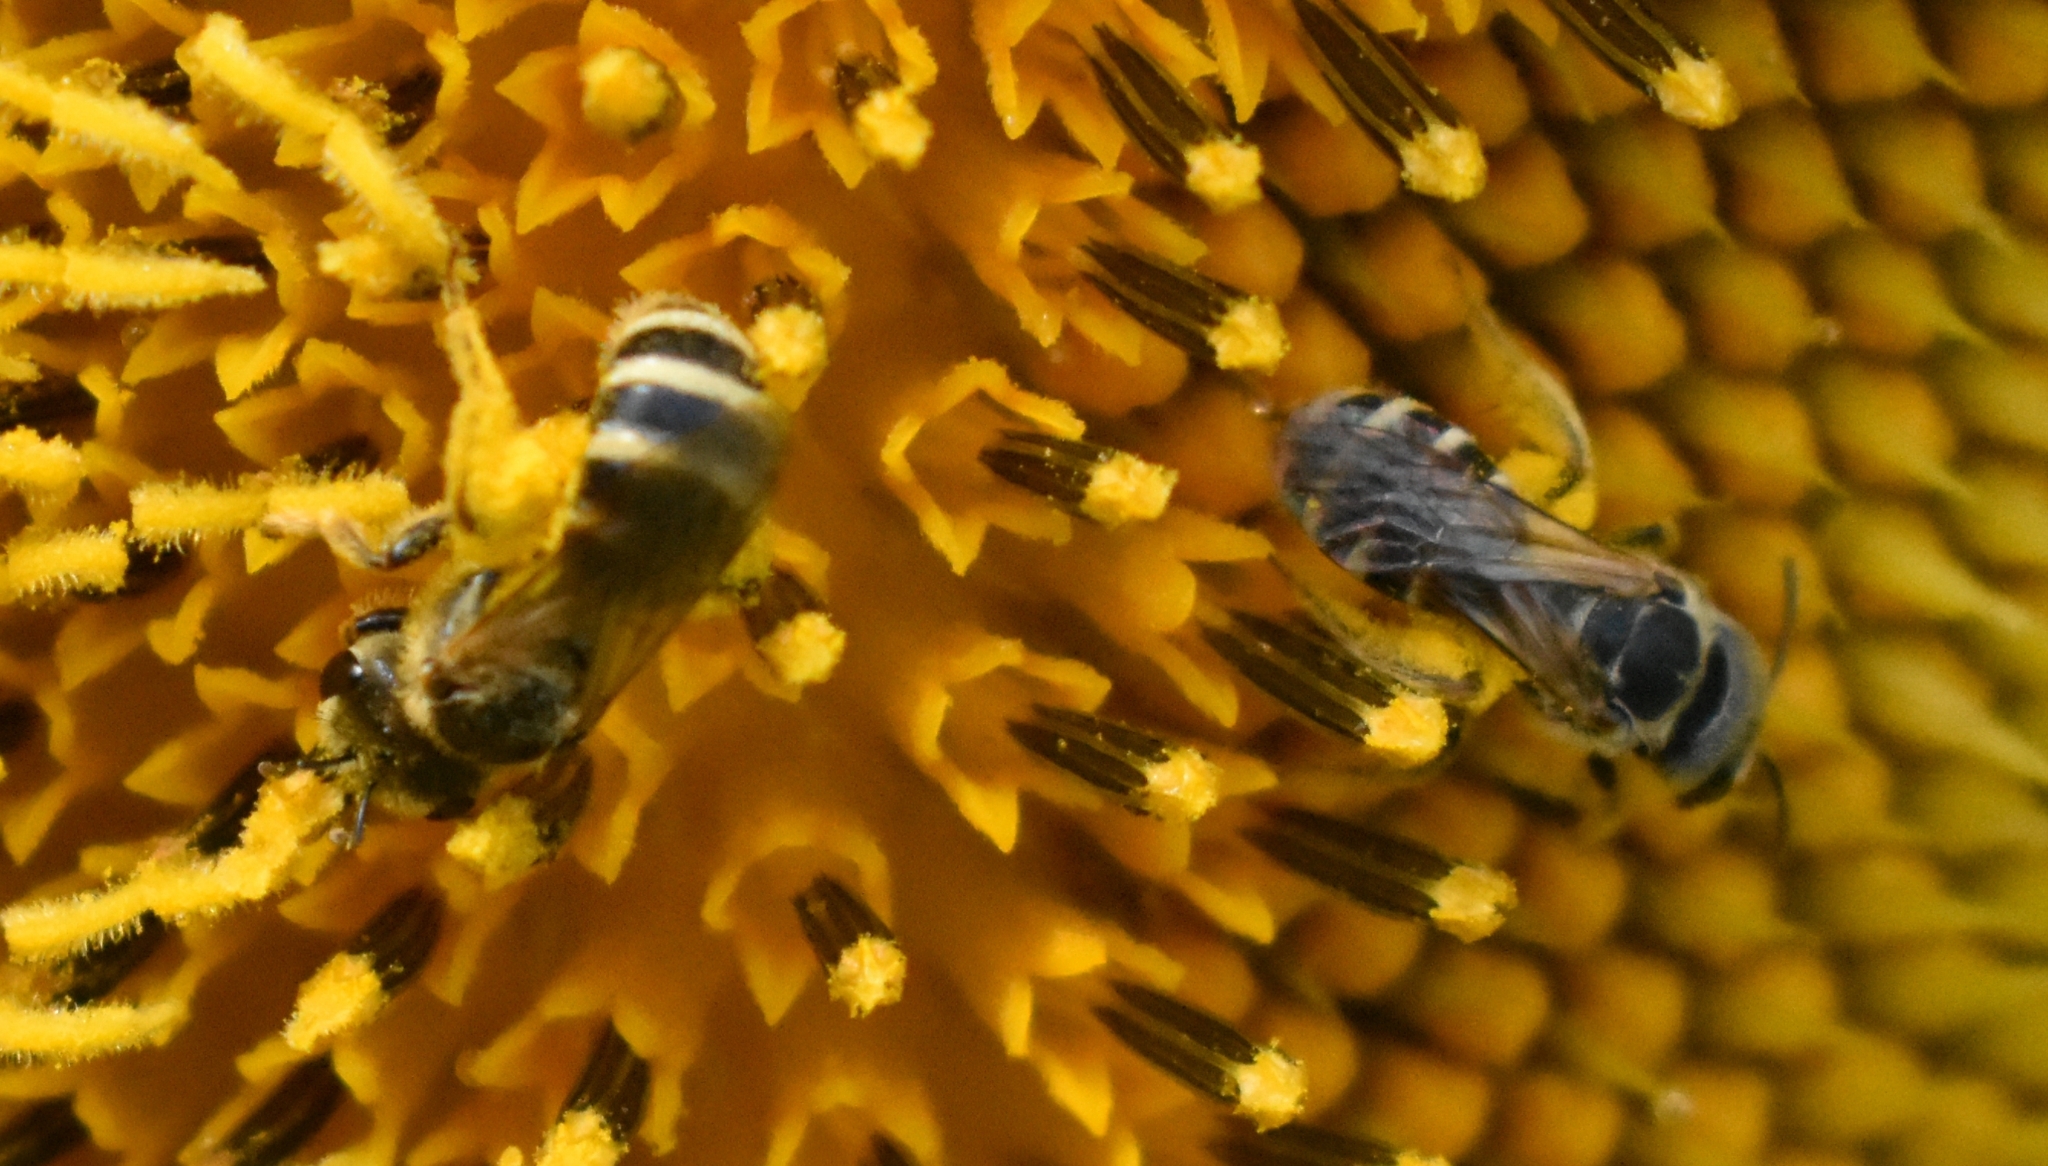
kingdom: Animalia
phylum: Arthropoda
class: Insecta
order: Hymenoptera
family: Halictidae
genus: Halictus
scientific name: Halictus ligatus
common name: Ligated furrow bee
